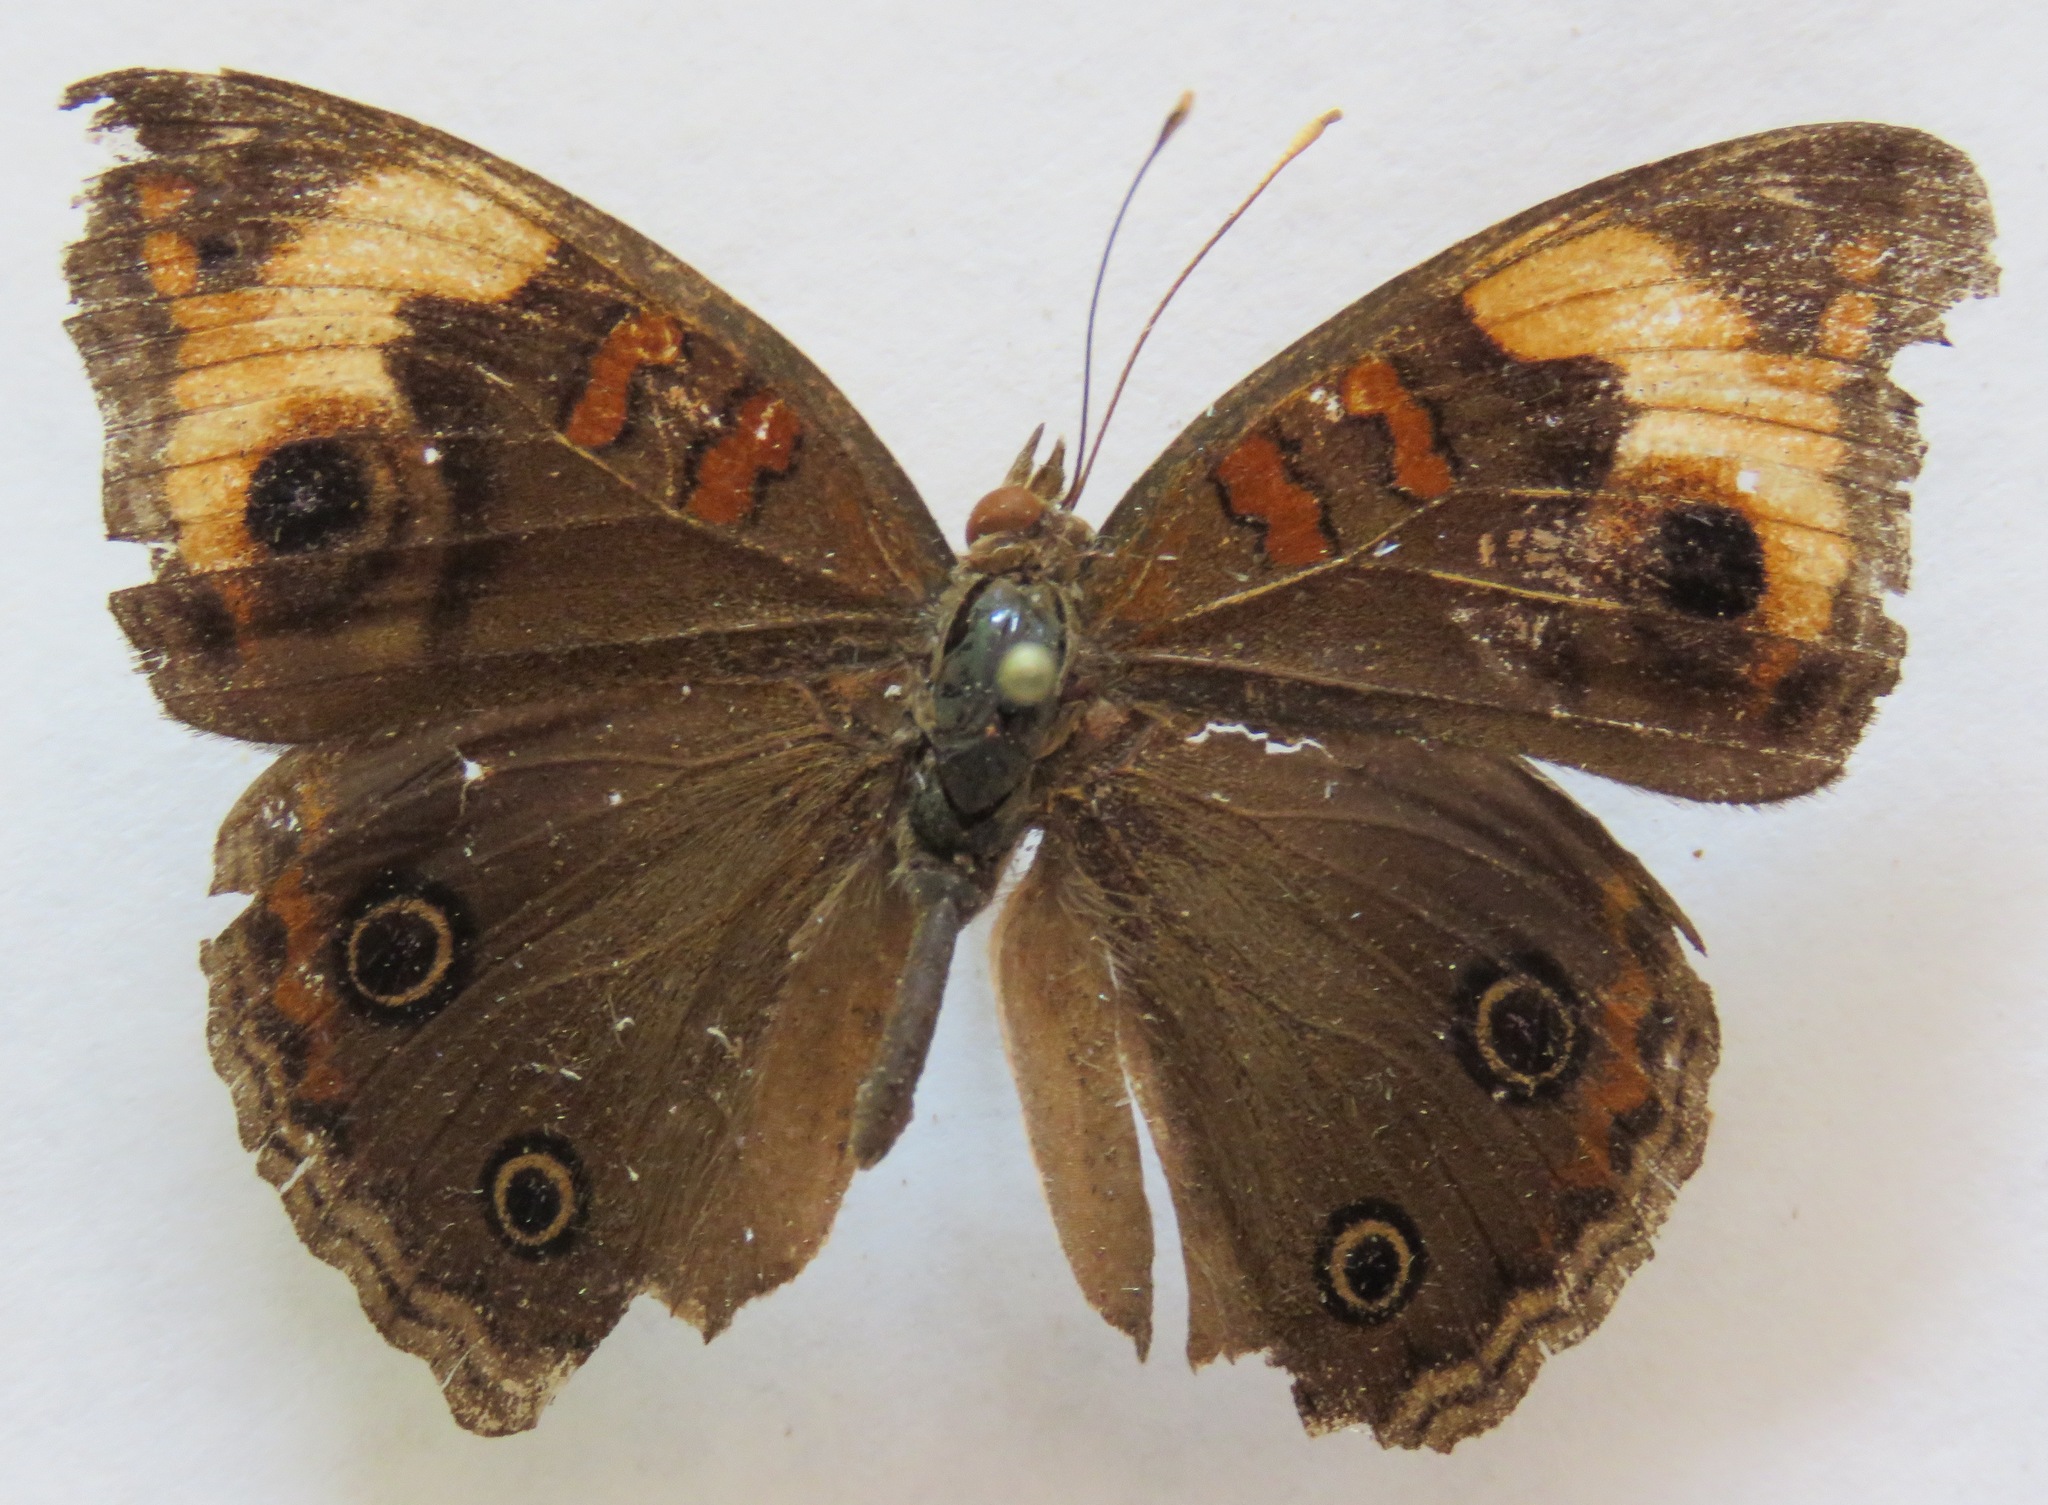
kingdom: Animalia
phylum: Arthropoda
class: Insecta
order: Lepidoptera
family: Nymphalidae
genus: Junonia
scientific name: Junonia lavinia
